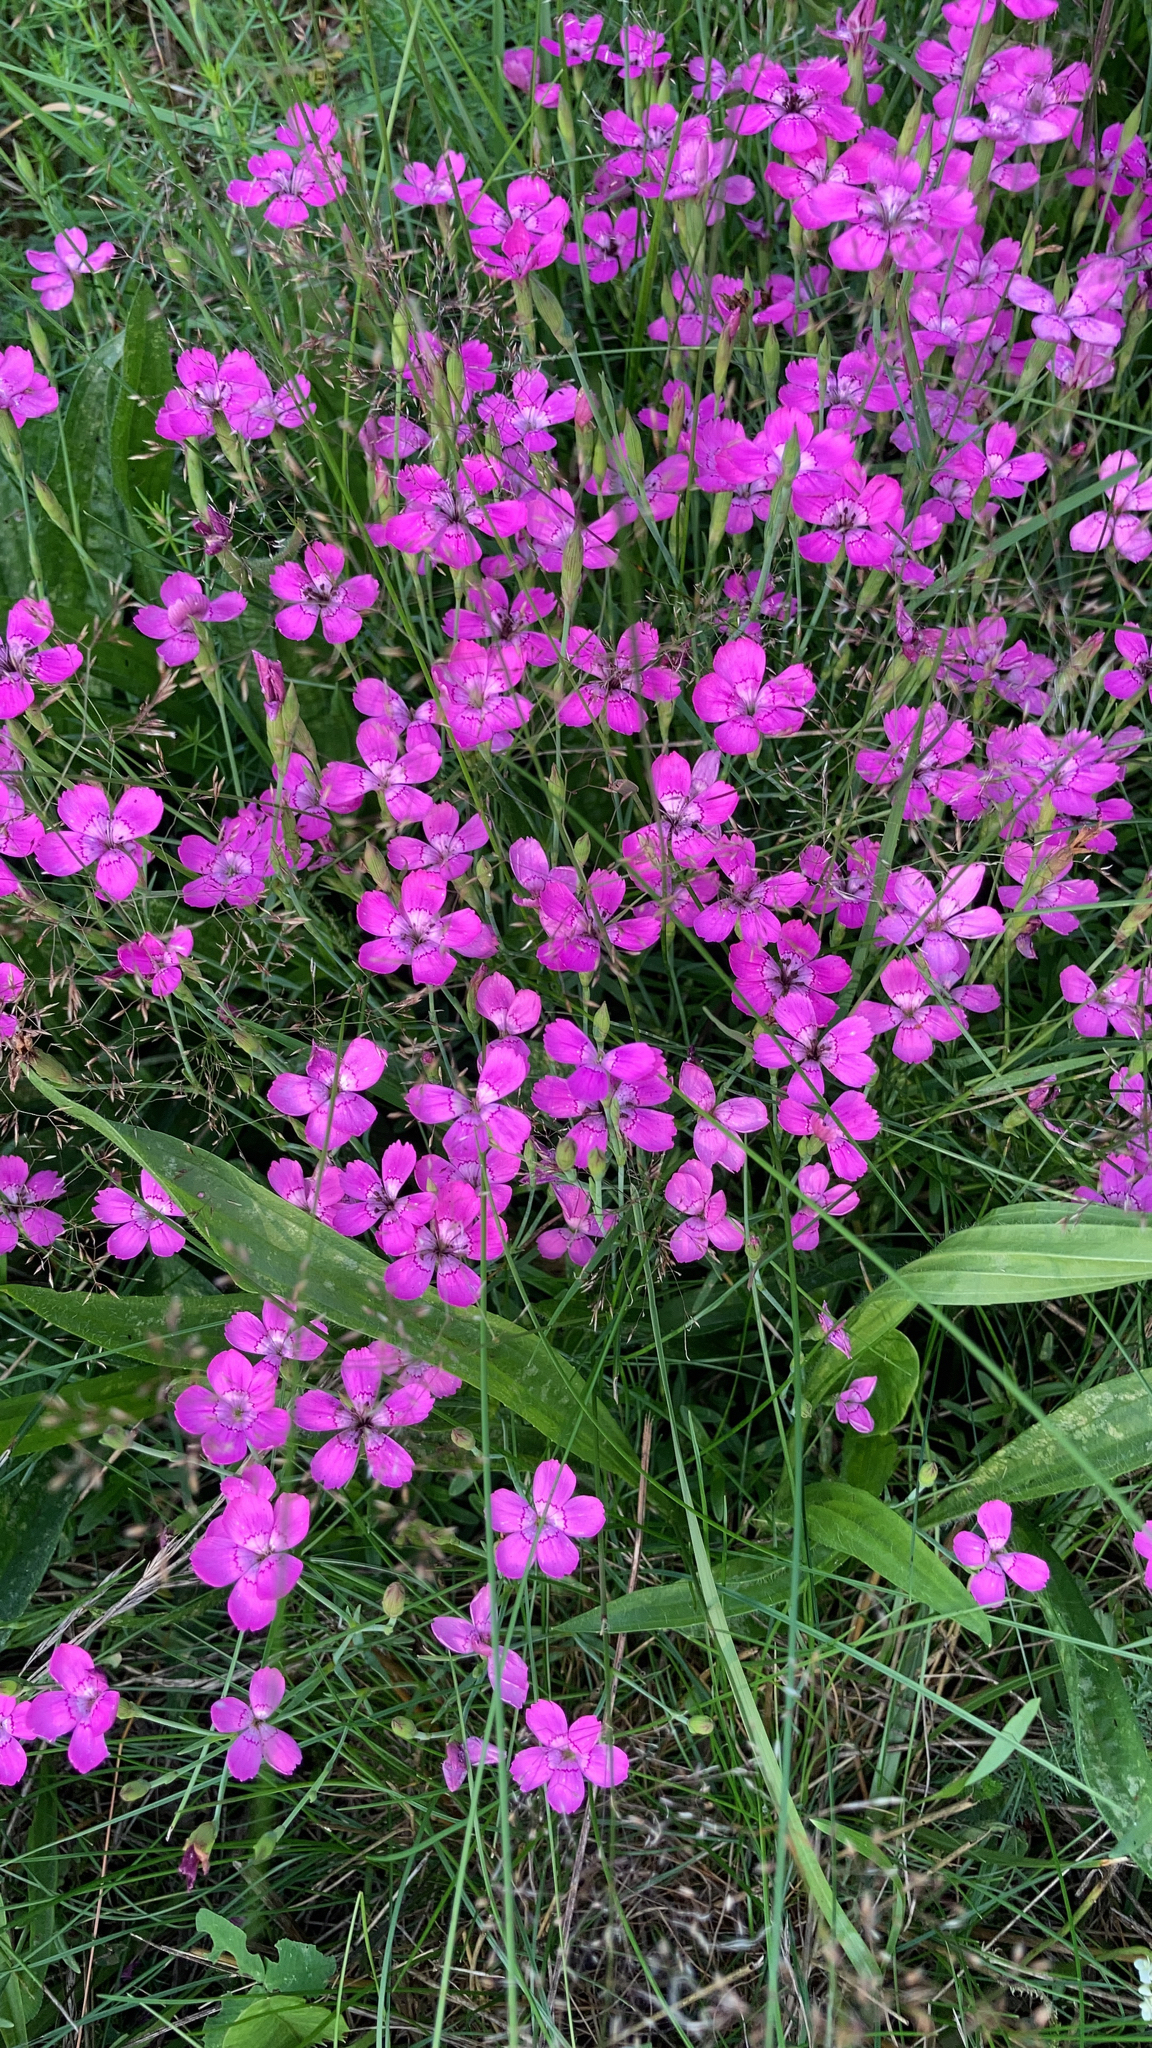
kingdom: Plantae
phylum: Tracheophyta
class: Magnoliopsida
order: Caryophyllales
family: Caryophyllaceae
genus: Dianthus
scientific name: Dianthus deltoides
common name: Maiden pink
